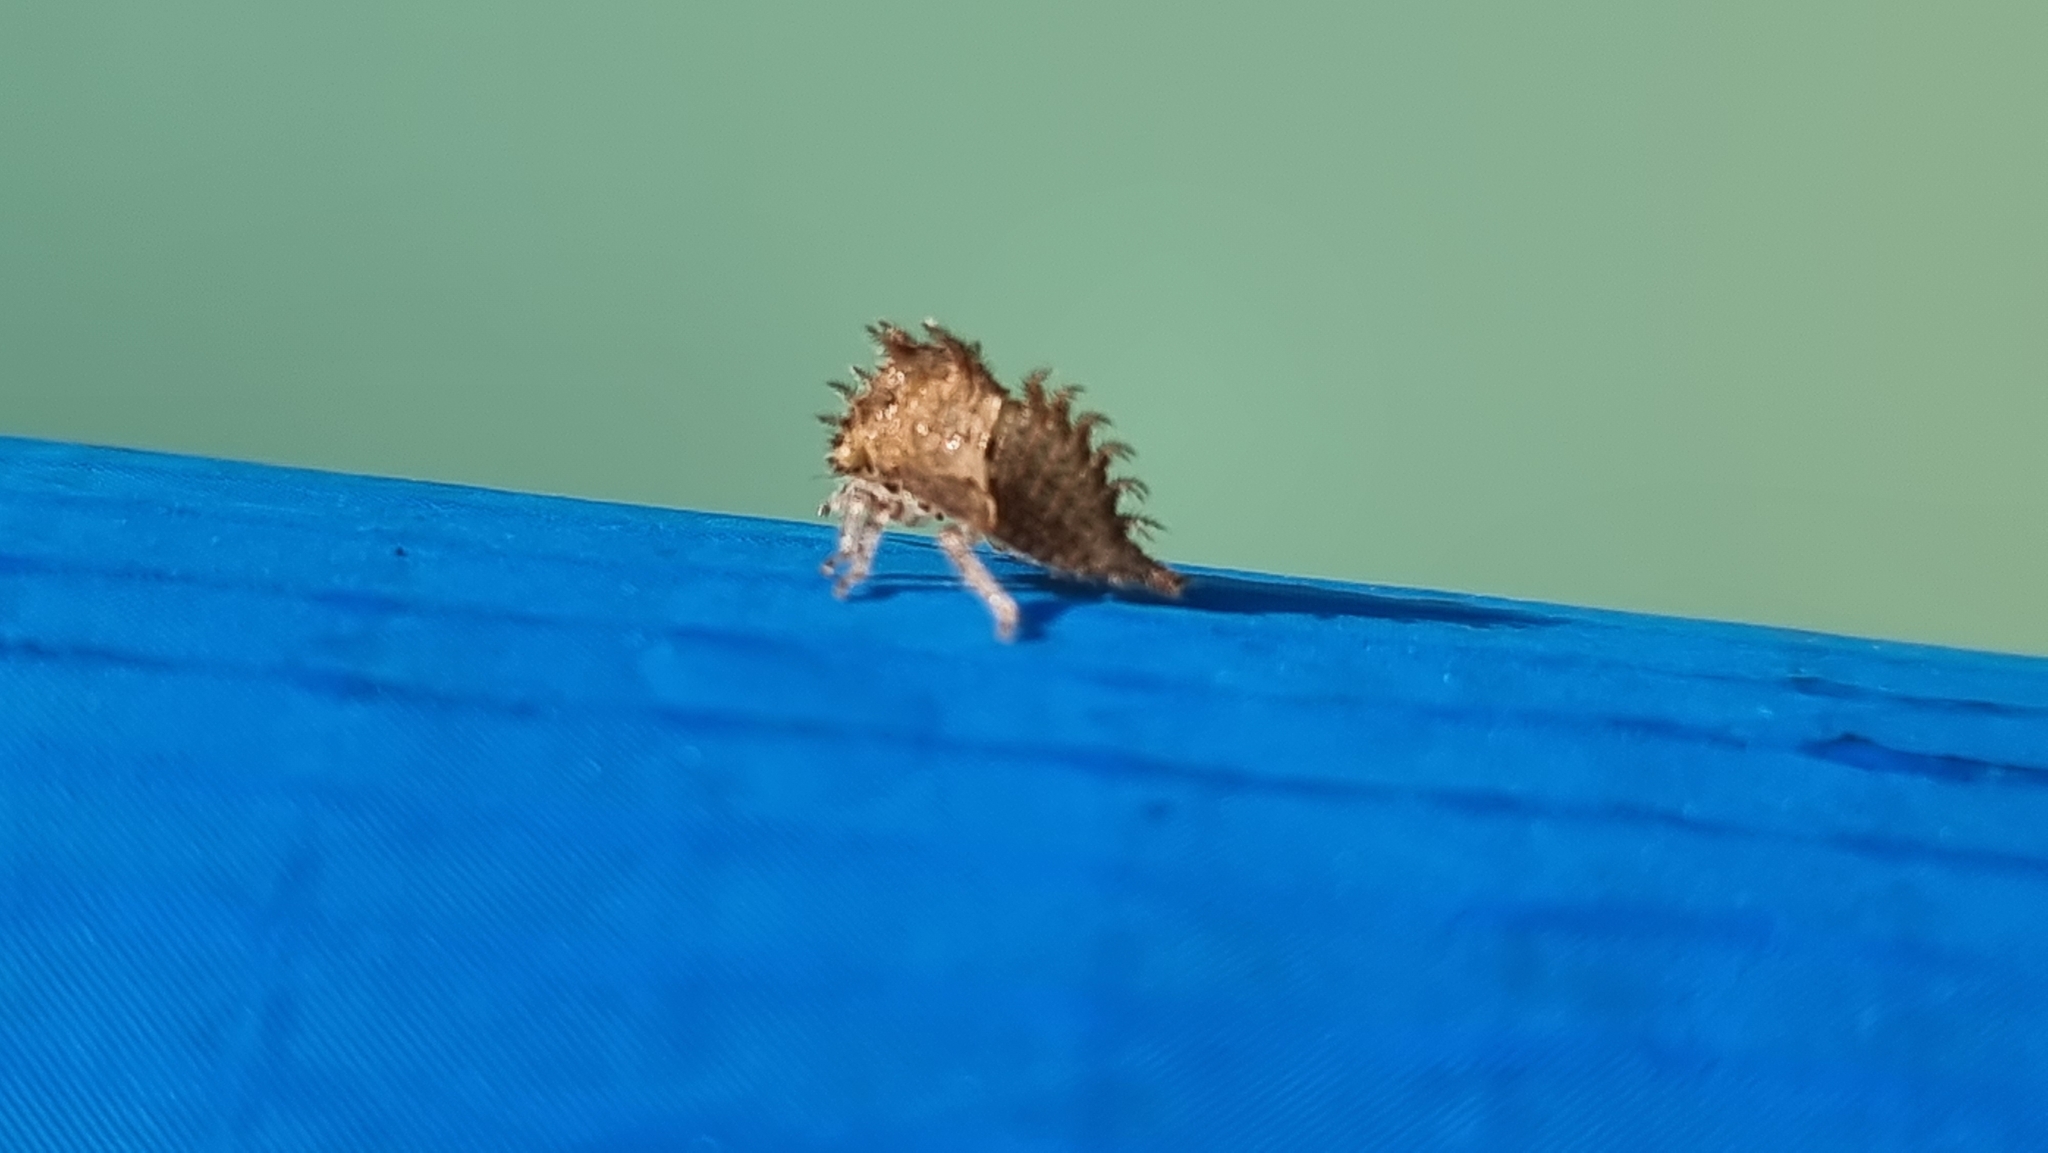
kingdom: Animalia
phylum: Arthropoda
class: Insecta
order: Hemiptera
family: Membracidae
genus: Stictocephala
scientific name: Stictocephala bisonia
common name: American buffalo treehopper
